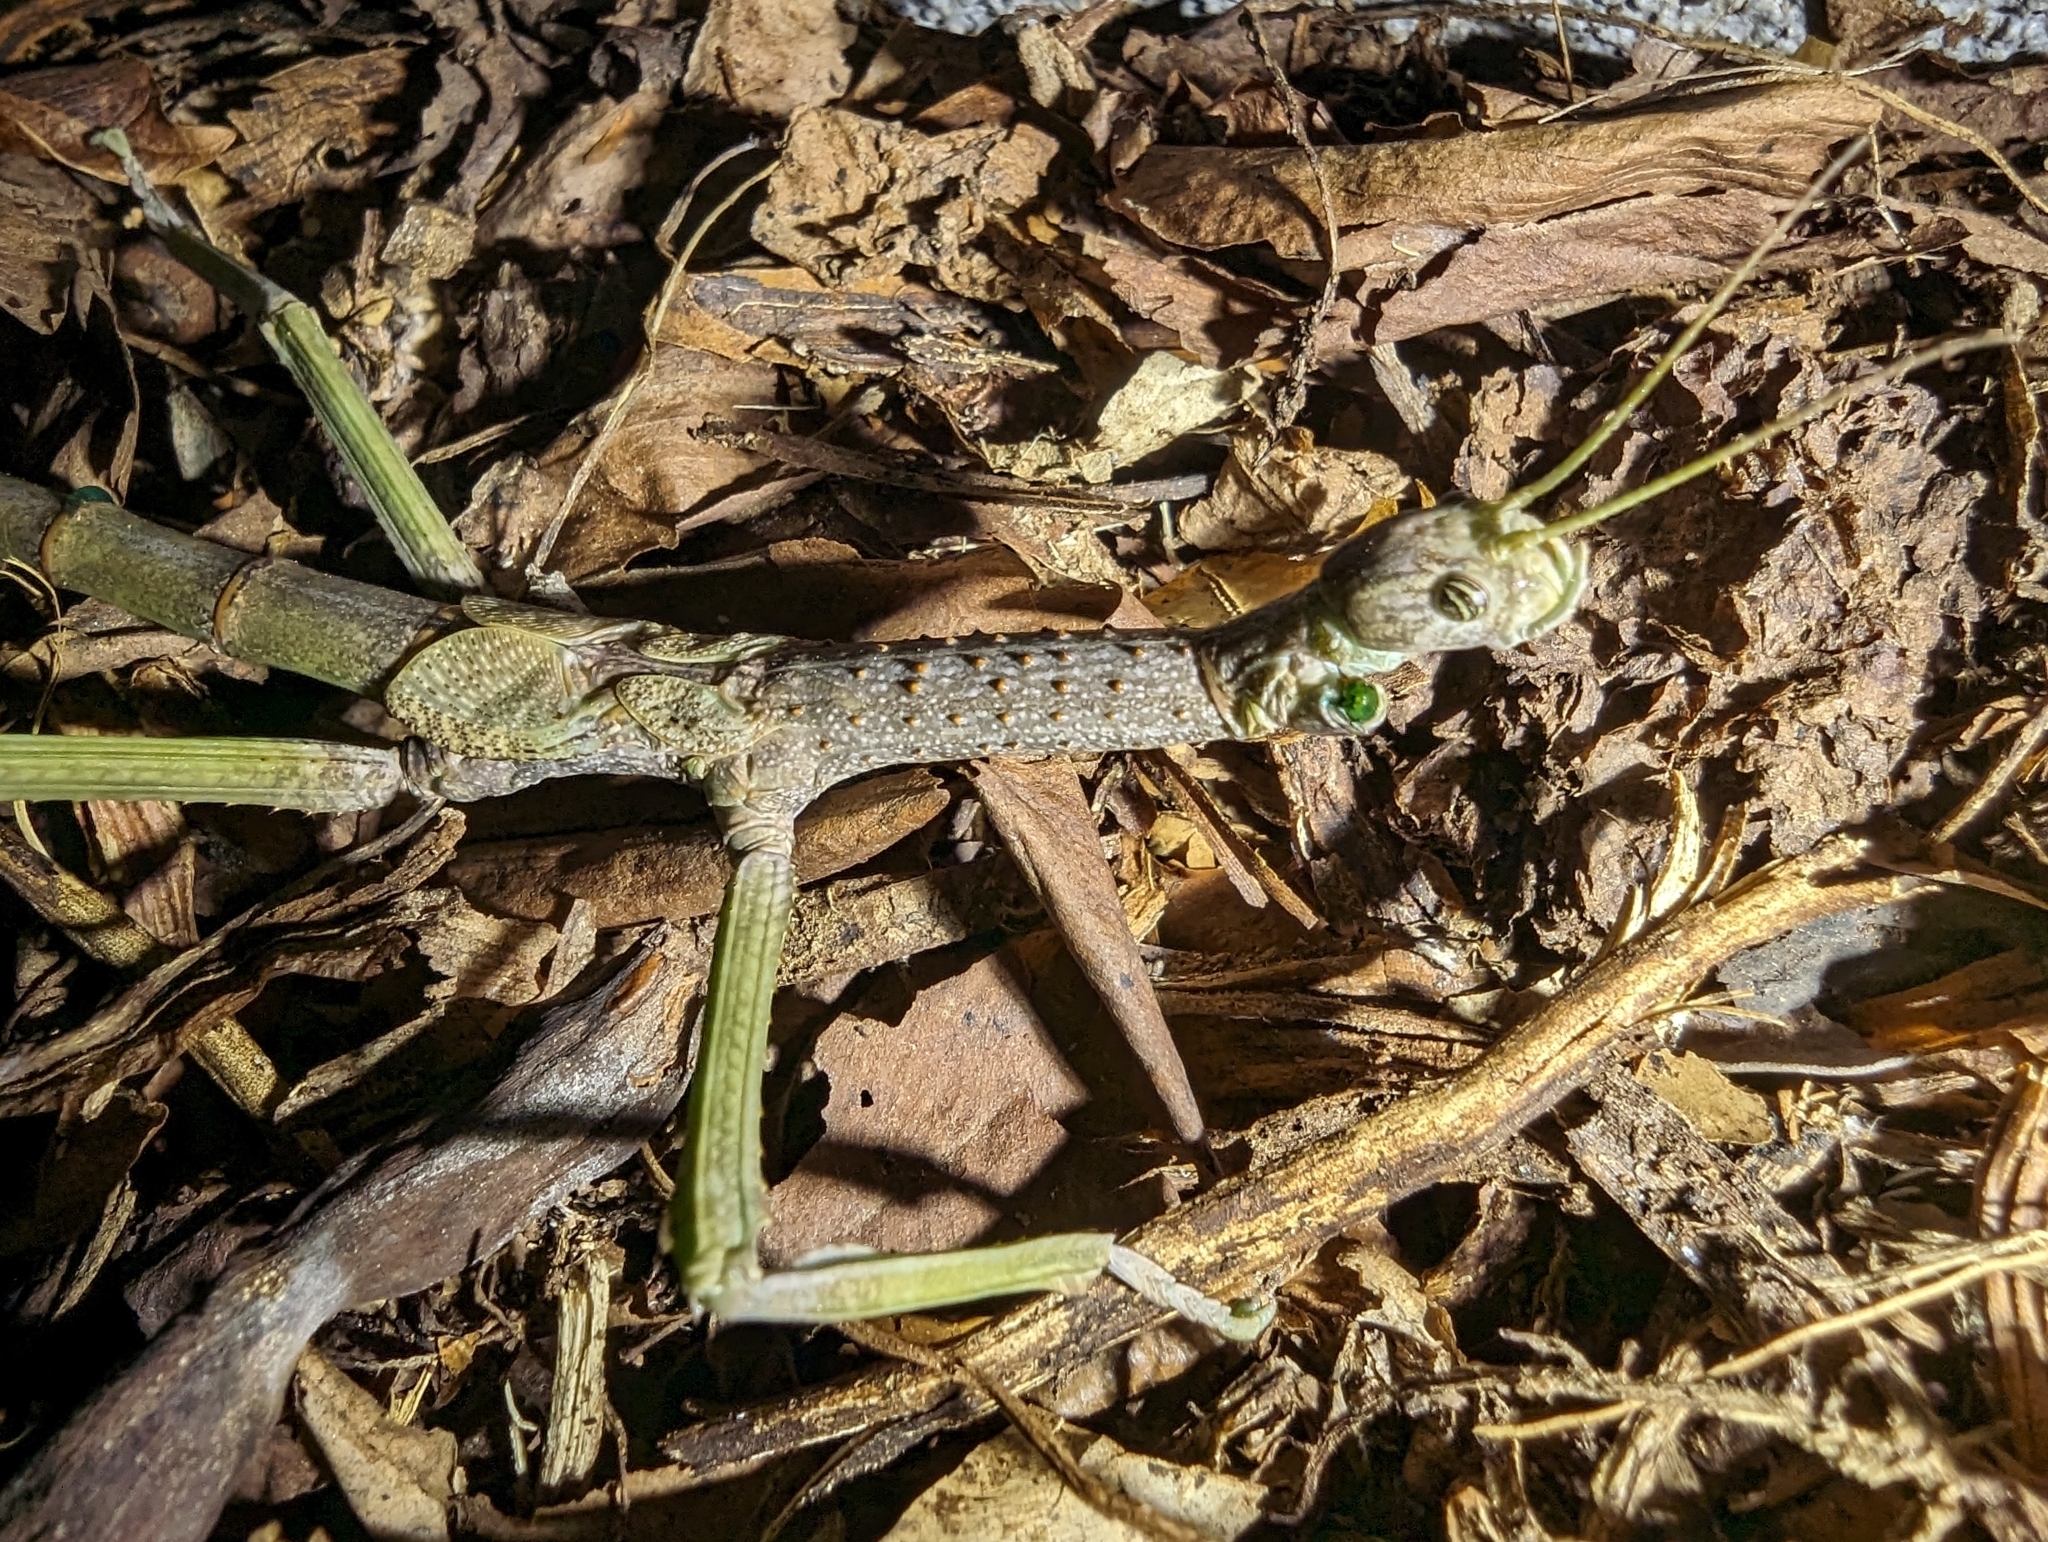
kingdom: Animalia
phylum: Arthropoda
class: Insecta
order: Phasmida
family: Phasmatidae
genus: Anchiale
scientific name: Anchiale briareus
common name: Strong stick insect
